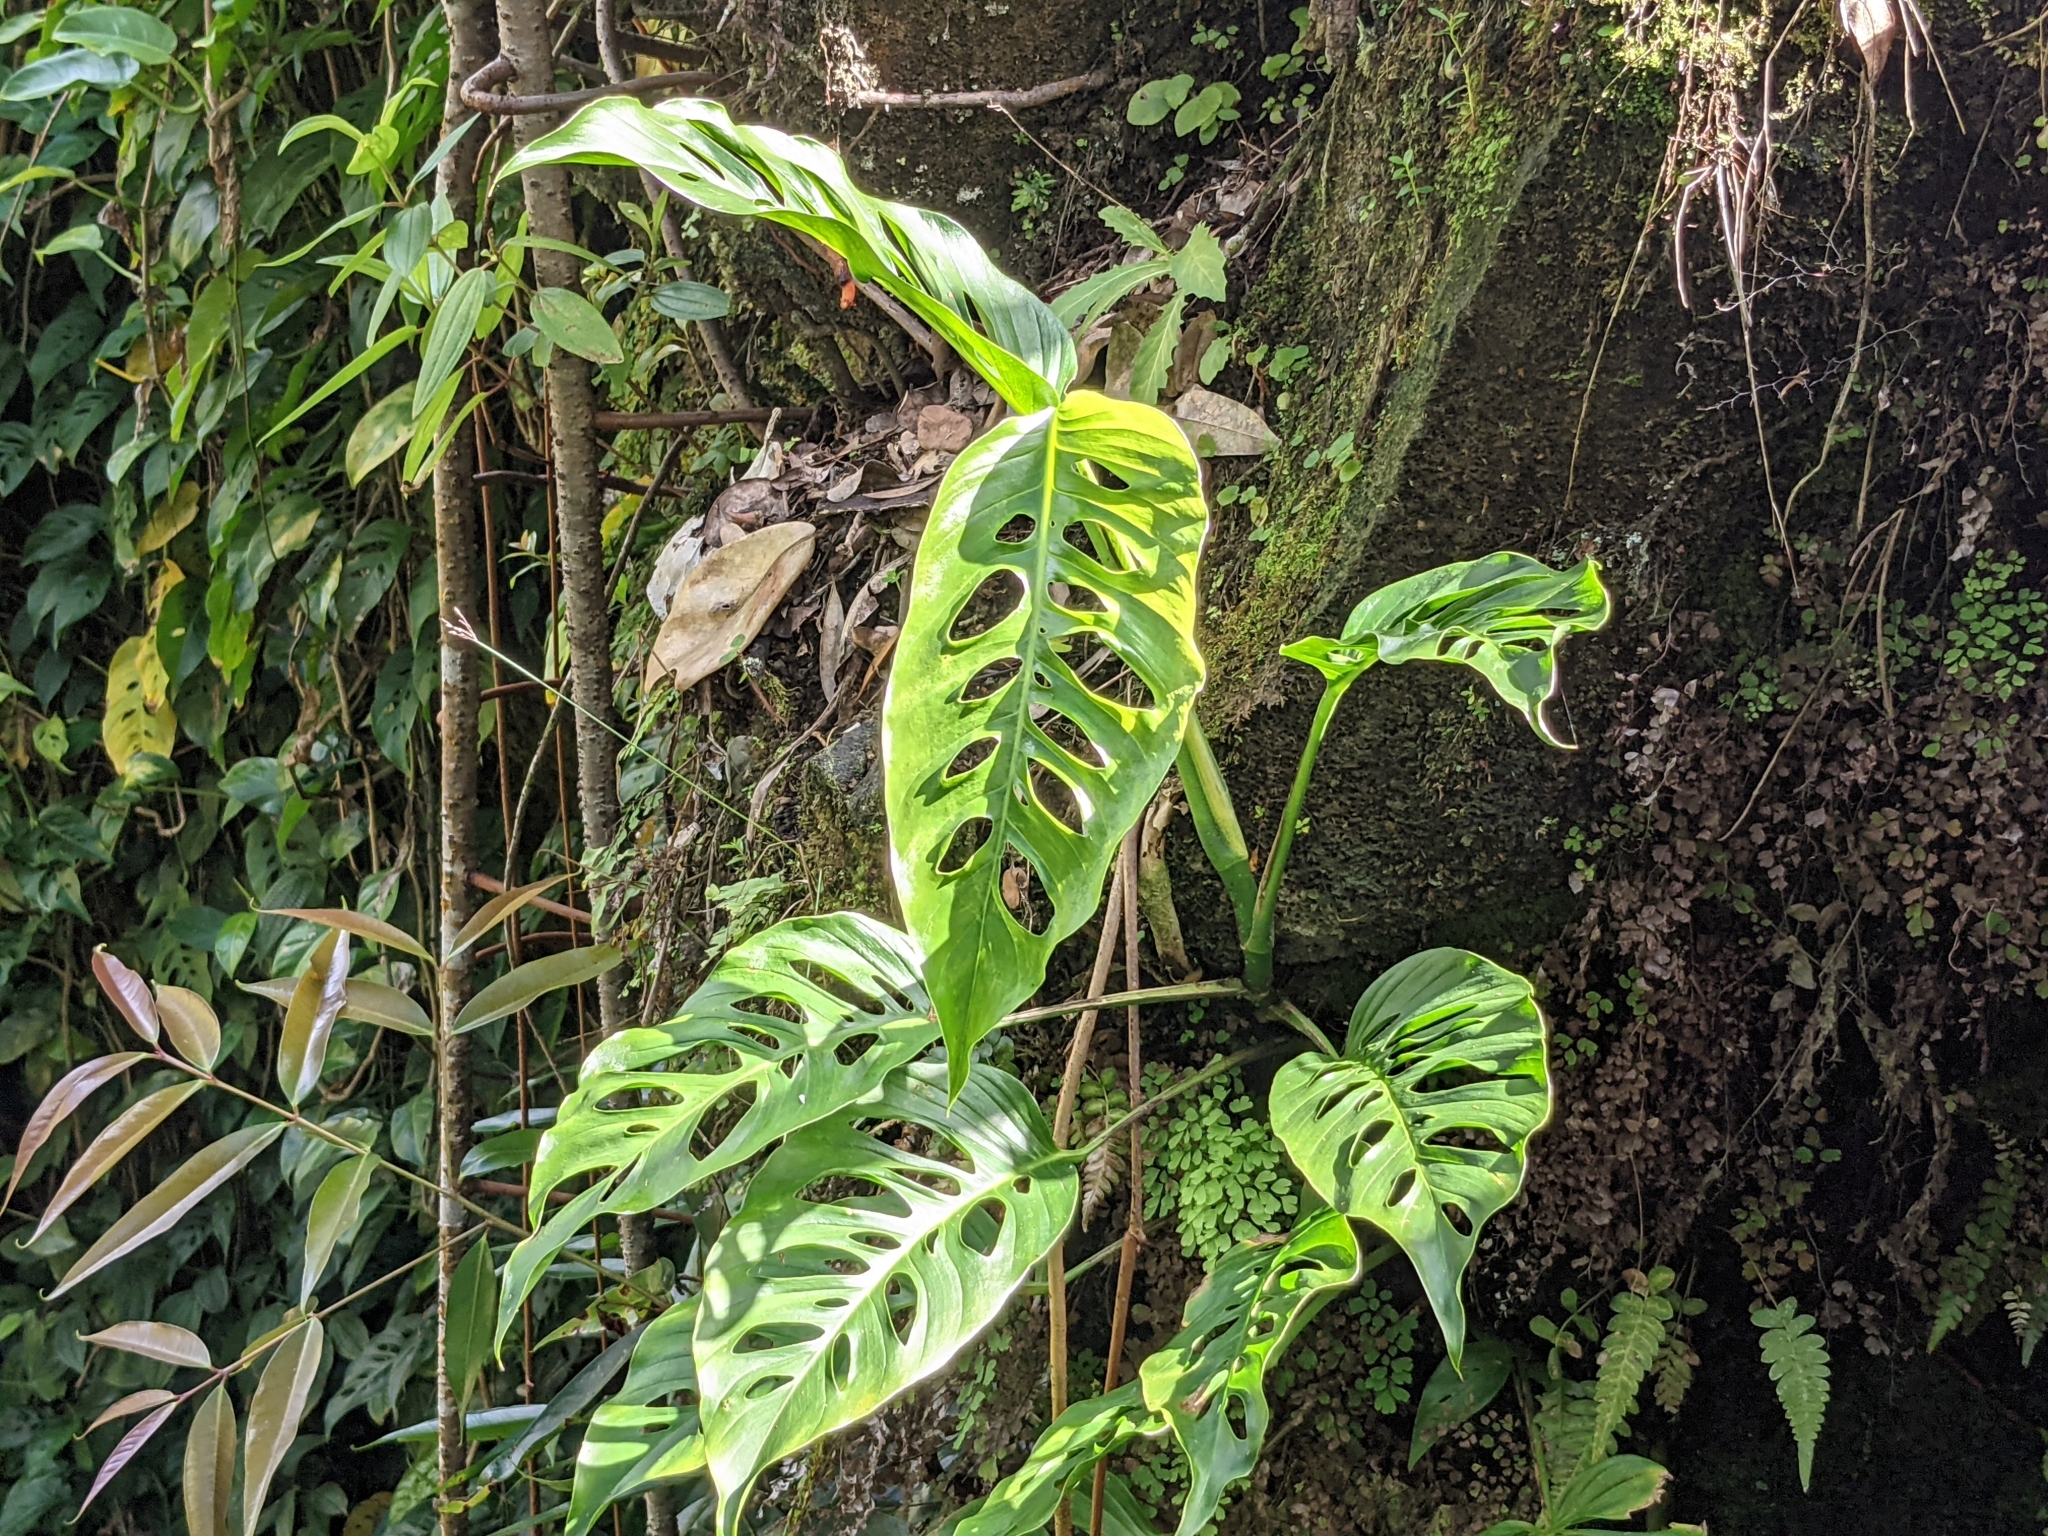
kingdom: Plantae
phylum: Tracheophyta
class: Liliopsida
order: Alismatales
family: Araceae
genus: Epipremnum
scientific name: Epipremnum pinnatum
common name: Centipede tongavine
